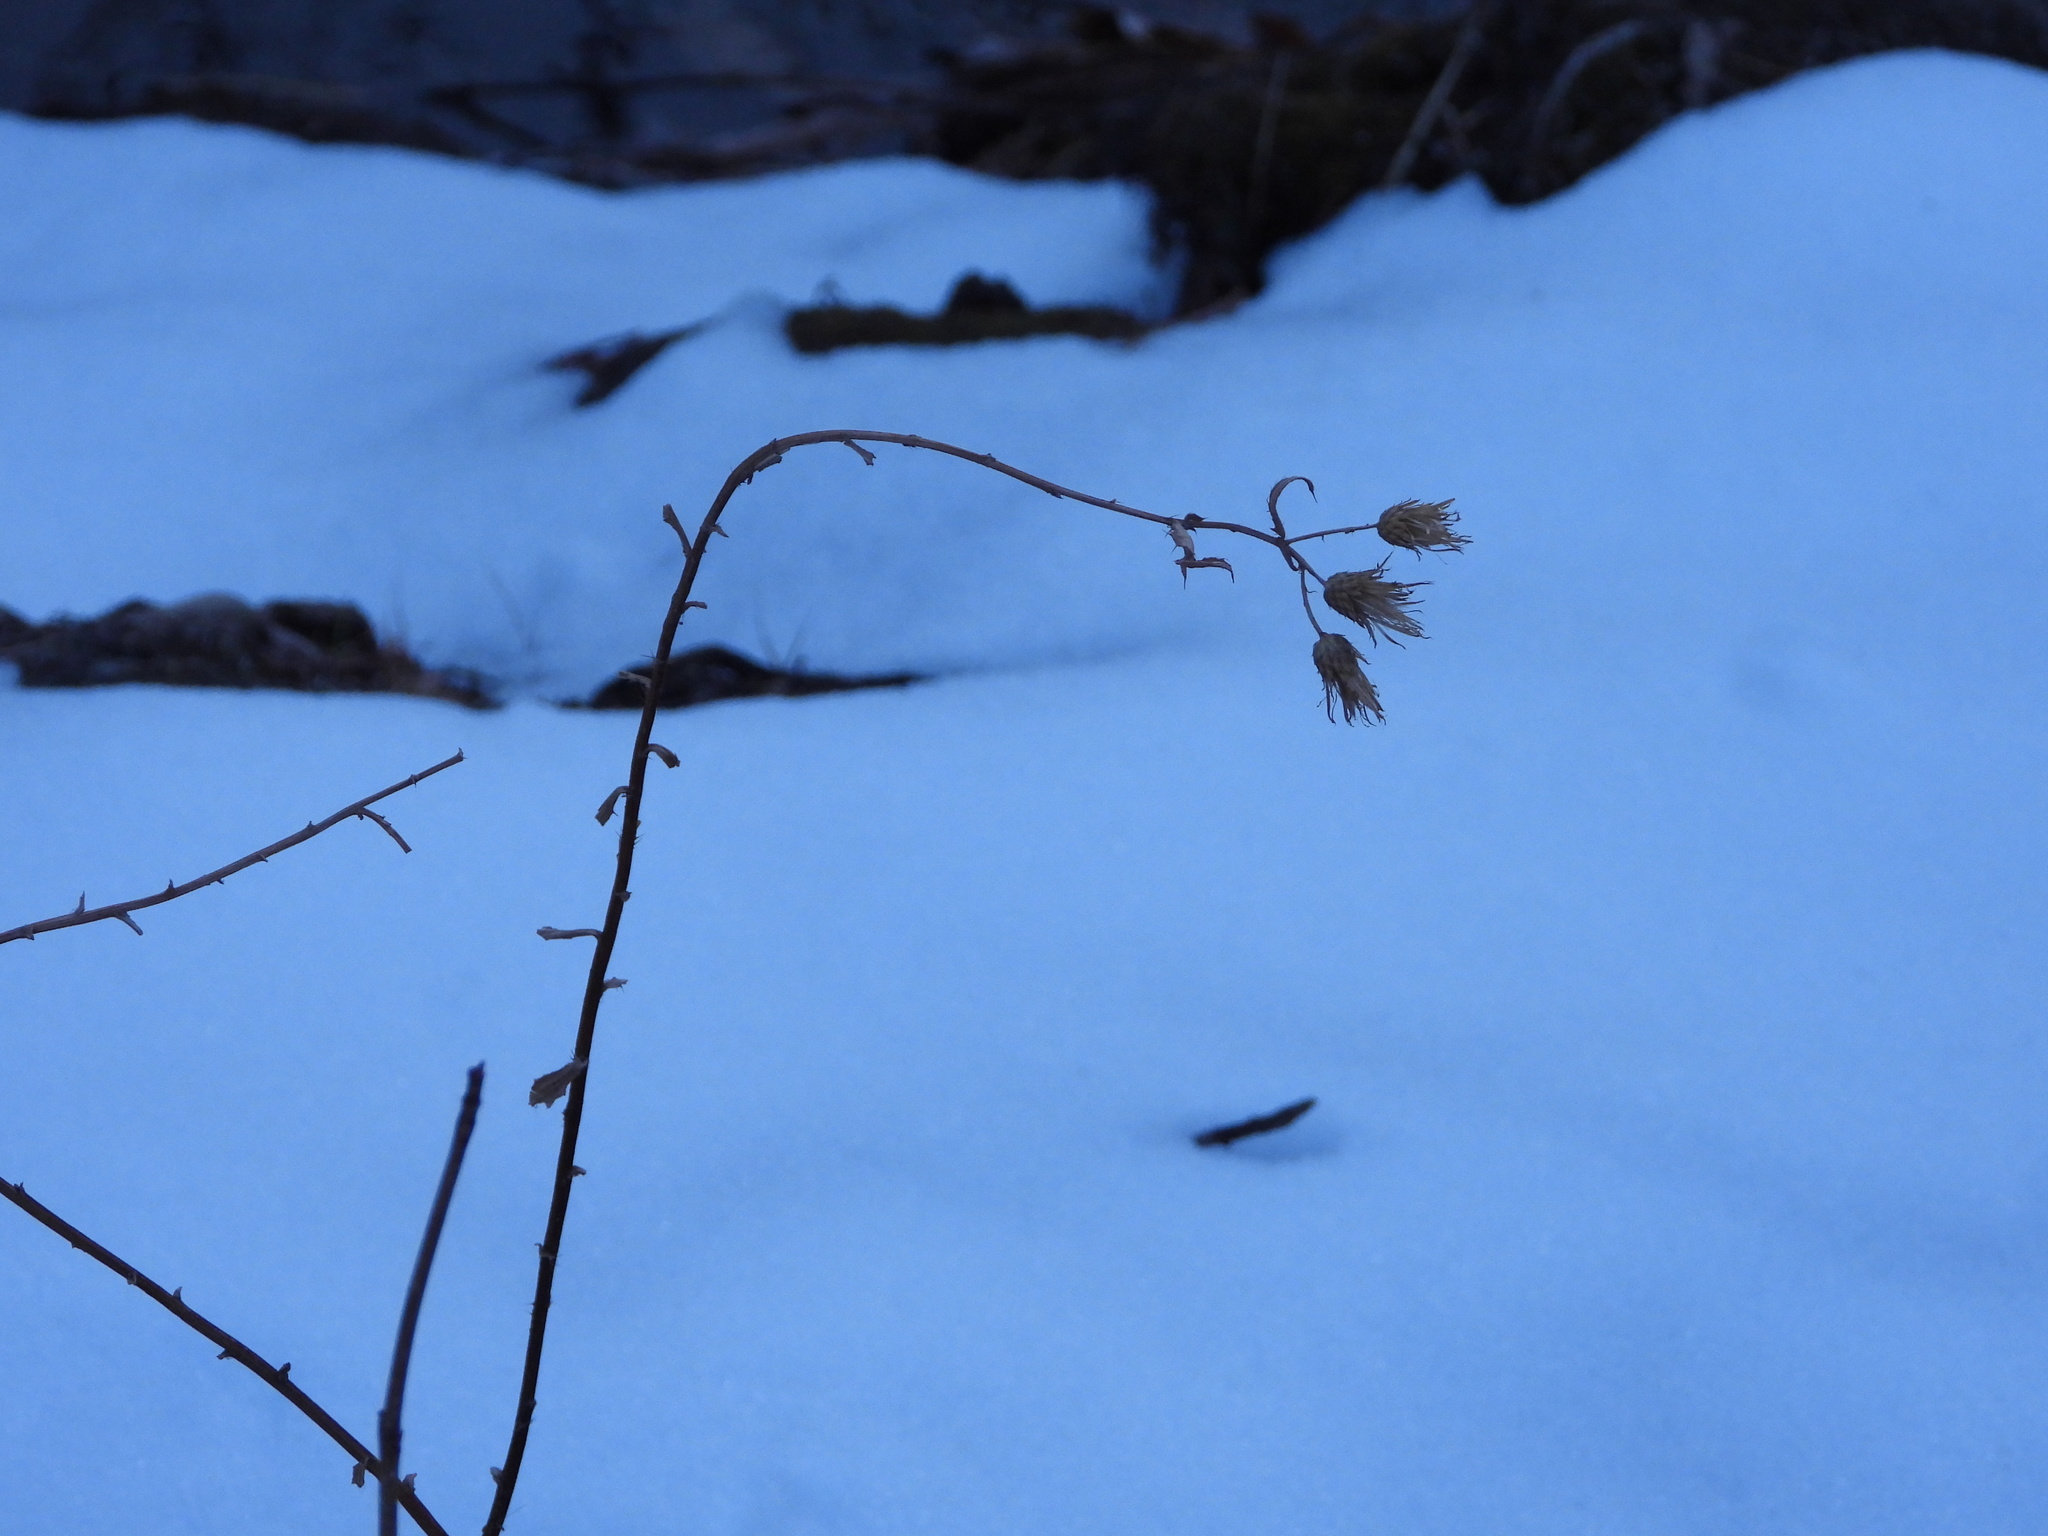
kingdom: Plantae
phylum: Tracheophyta
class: Magnoliopsida
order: Asterales
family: Asteraceae
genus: Cirsium
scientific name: Cirsium arvense
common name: Creeping thistle
